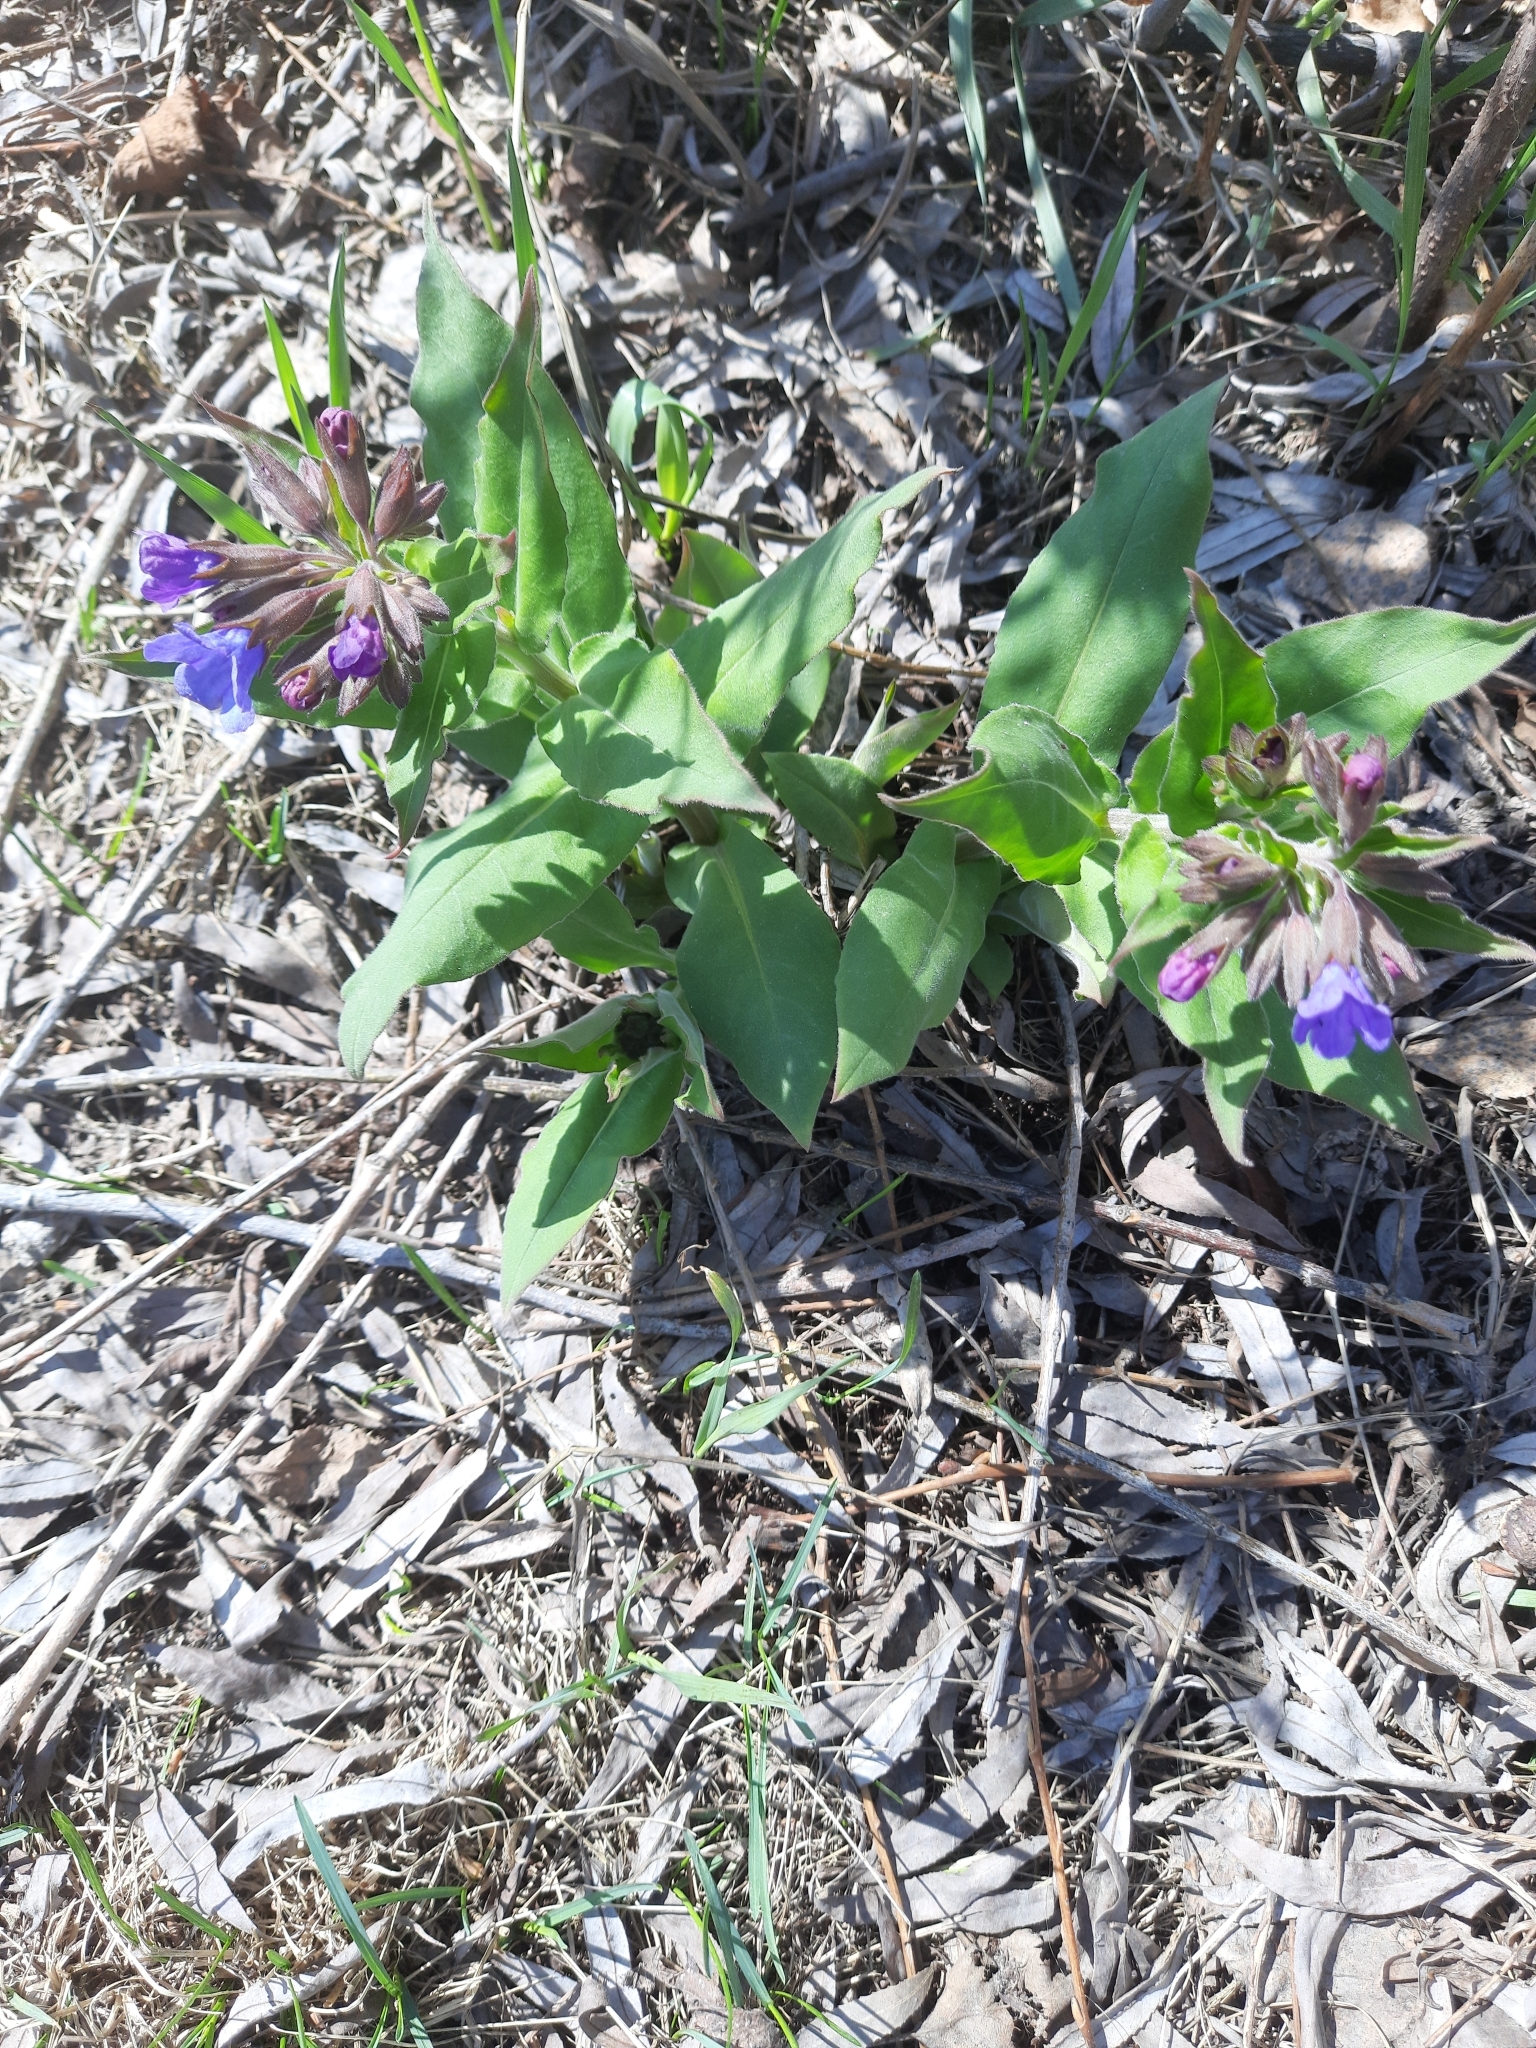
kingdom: Plantae
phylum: Tracheophyta
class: Magnoliopsida
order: Boraginales
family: Boraginaceae
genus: Pulmonaria
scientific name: Pulmonaria mollis
